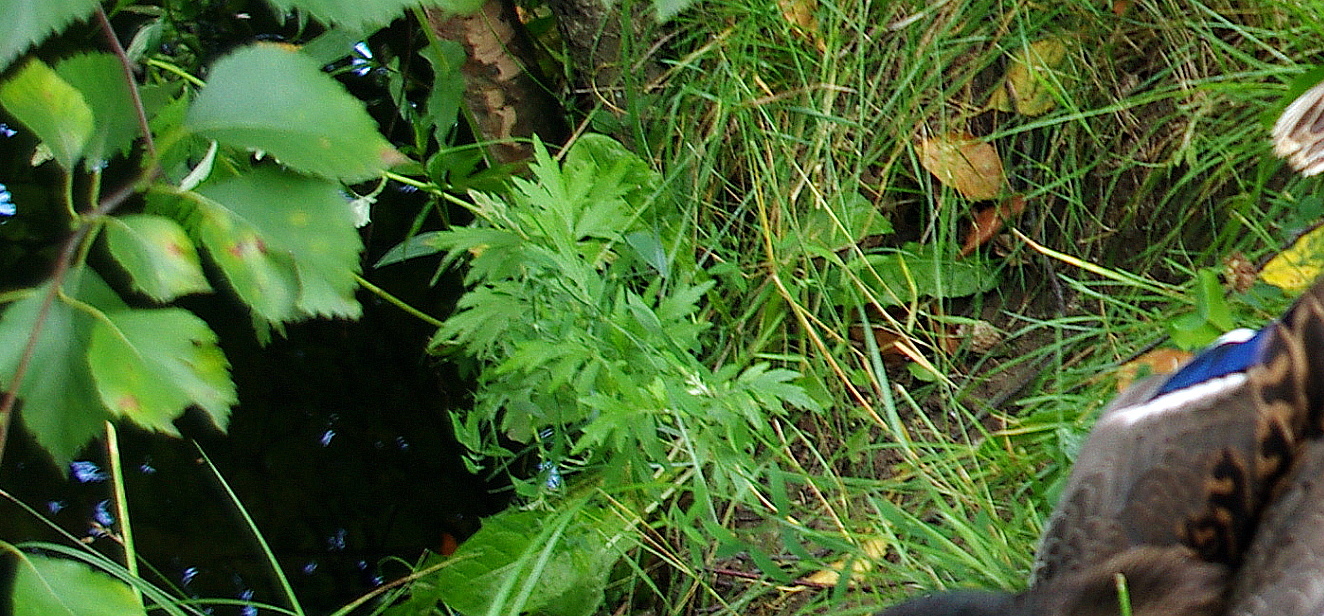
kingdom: Plantae
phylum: Tracheophyta
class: Magnoliopsida
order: Asterales
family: Asteraceae
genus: Artemisia
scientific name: Artemisia vulgaris
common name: Mugwort
